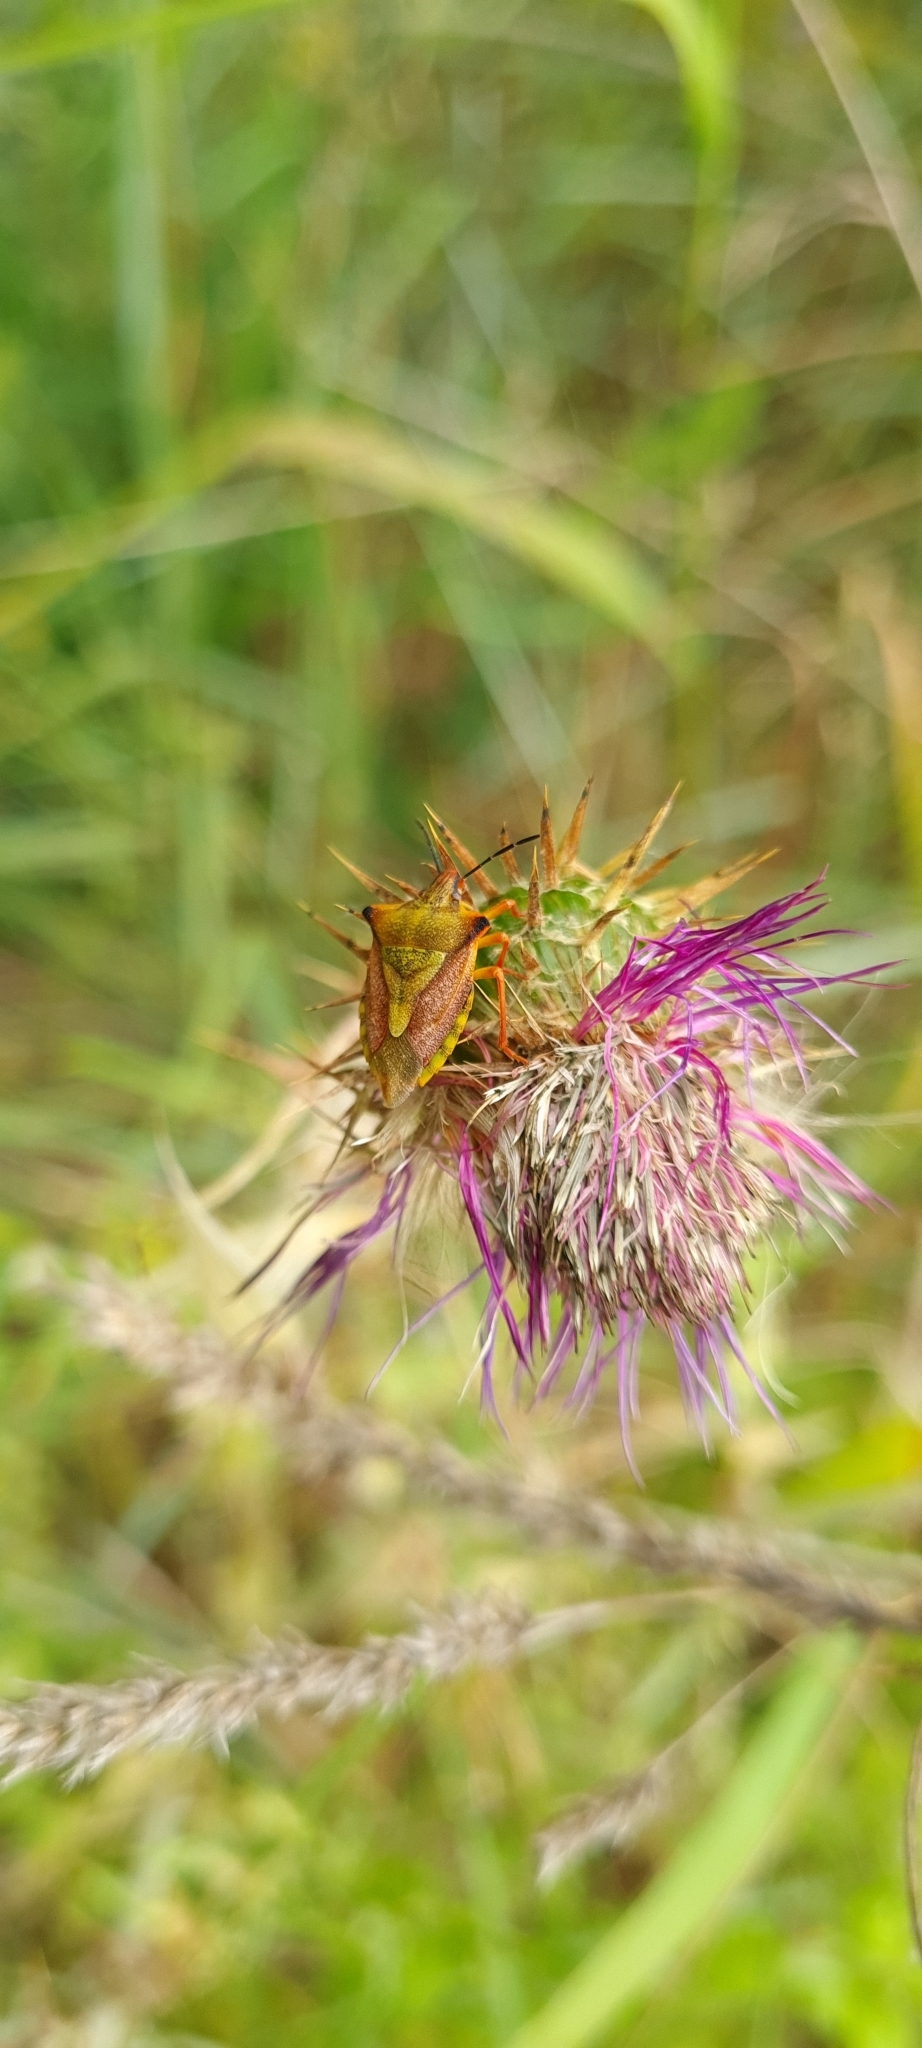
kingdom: Animalia
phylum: Arthropoda
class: Insecta
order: Hemiptera
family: Pentatomidae
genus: Carpocoris
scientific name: Carpocoris mediterraneus
